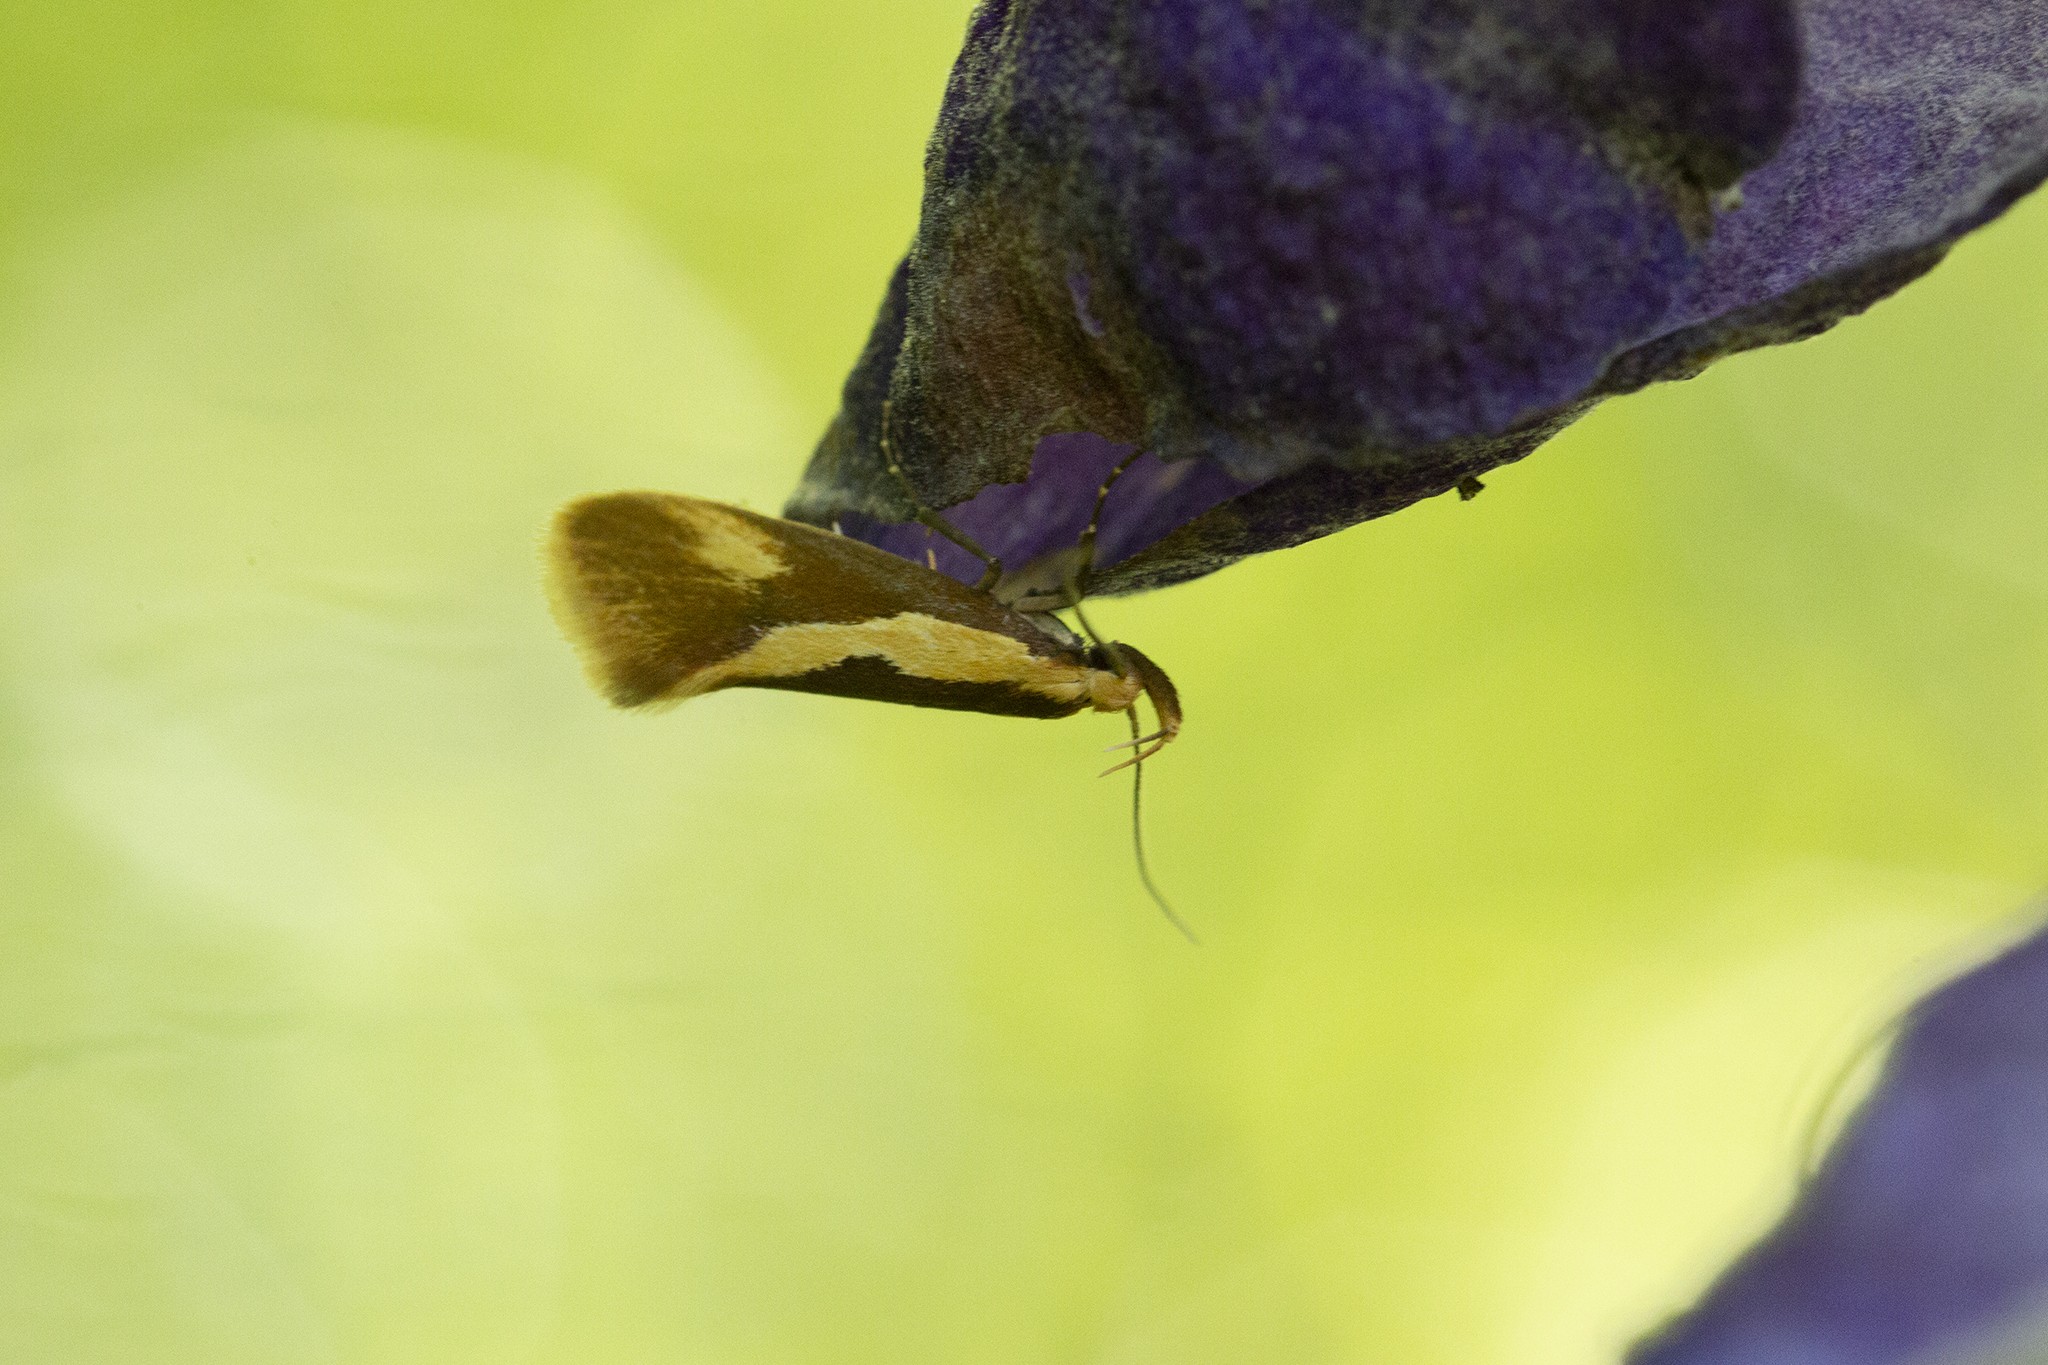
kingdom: Animalia
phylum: Arthropoda
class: Insecta
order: Lepidoptera
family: Oecophoridae
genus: Harpella
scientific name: Harpella forficella
